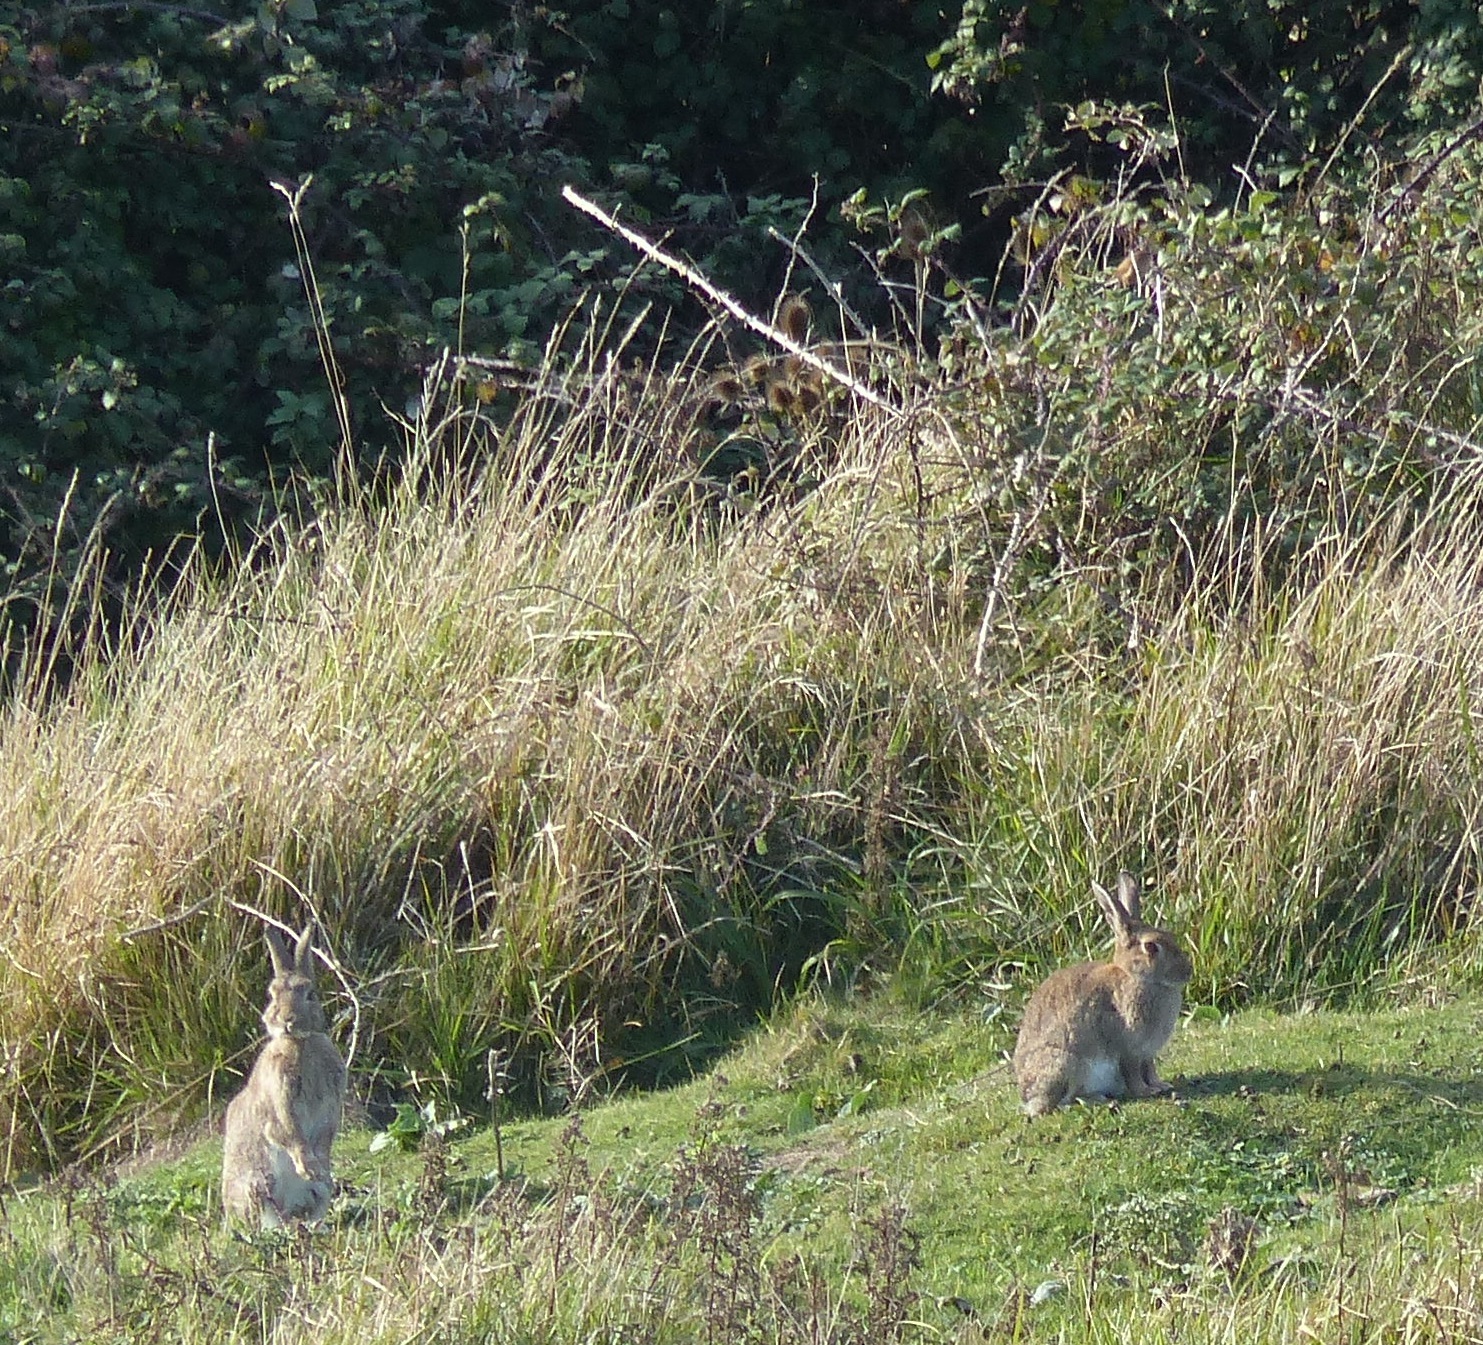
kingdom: Animalia
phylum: Chordata
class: Mammalia
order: Lagomorpha
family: Leporidae
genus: Oryctolagus
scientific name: Oryctolagus cuniculus
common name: European rabbit
